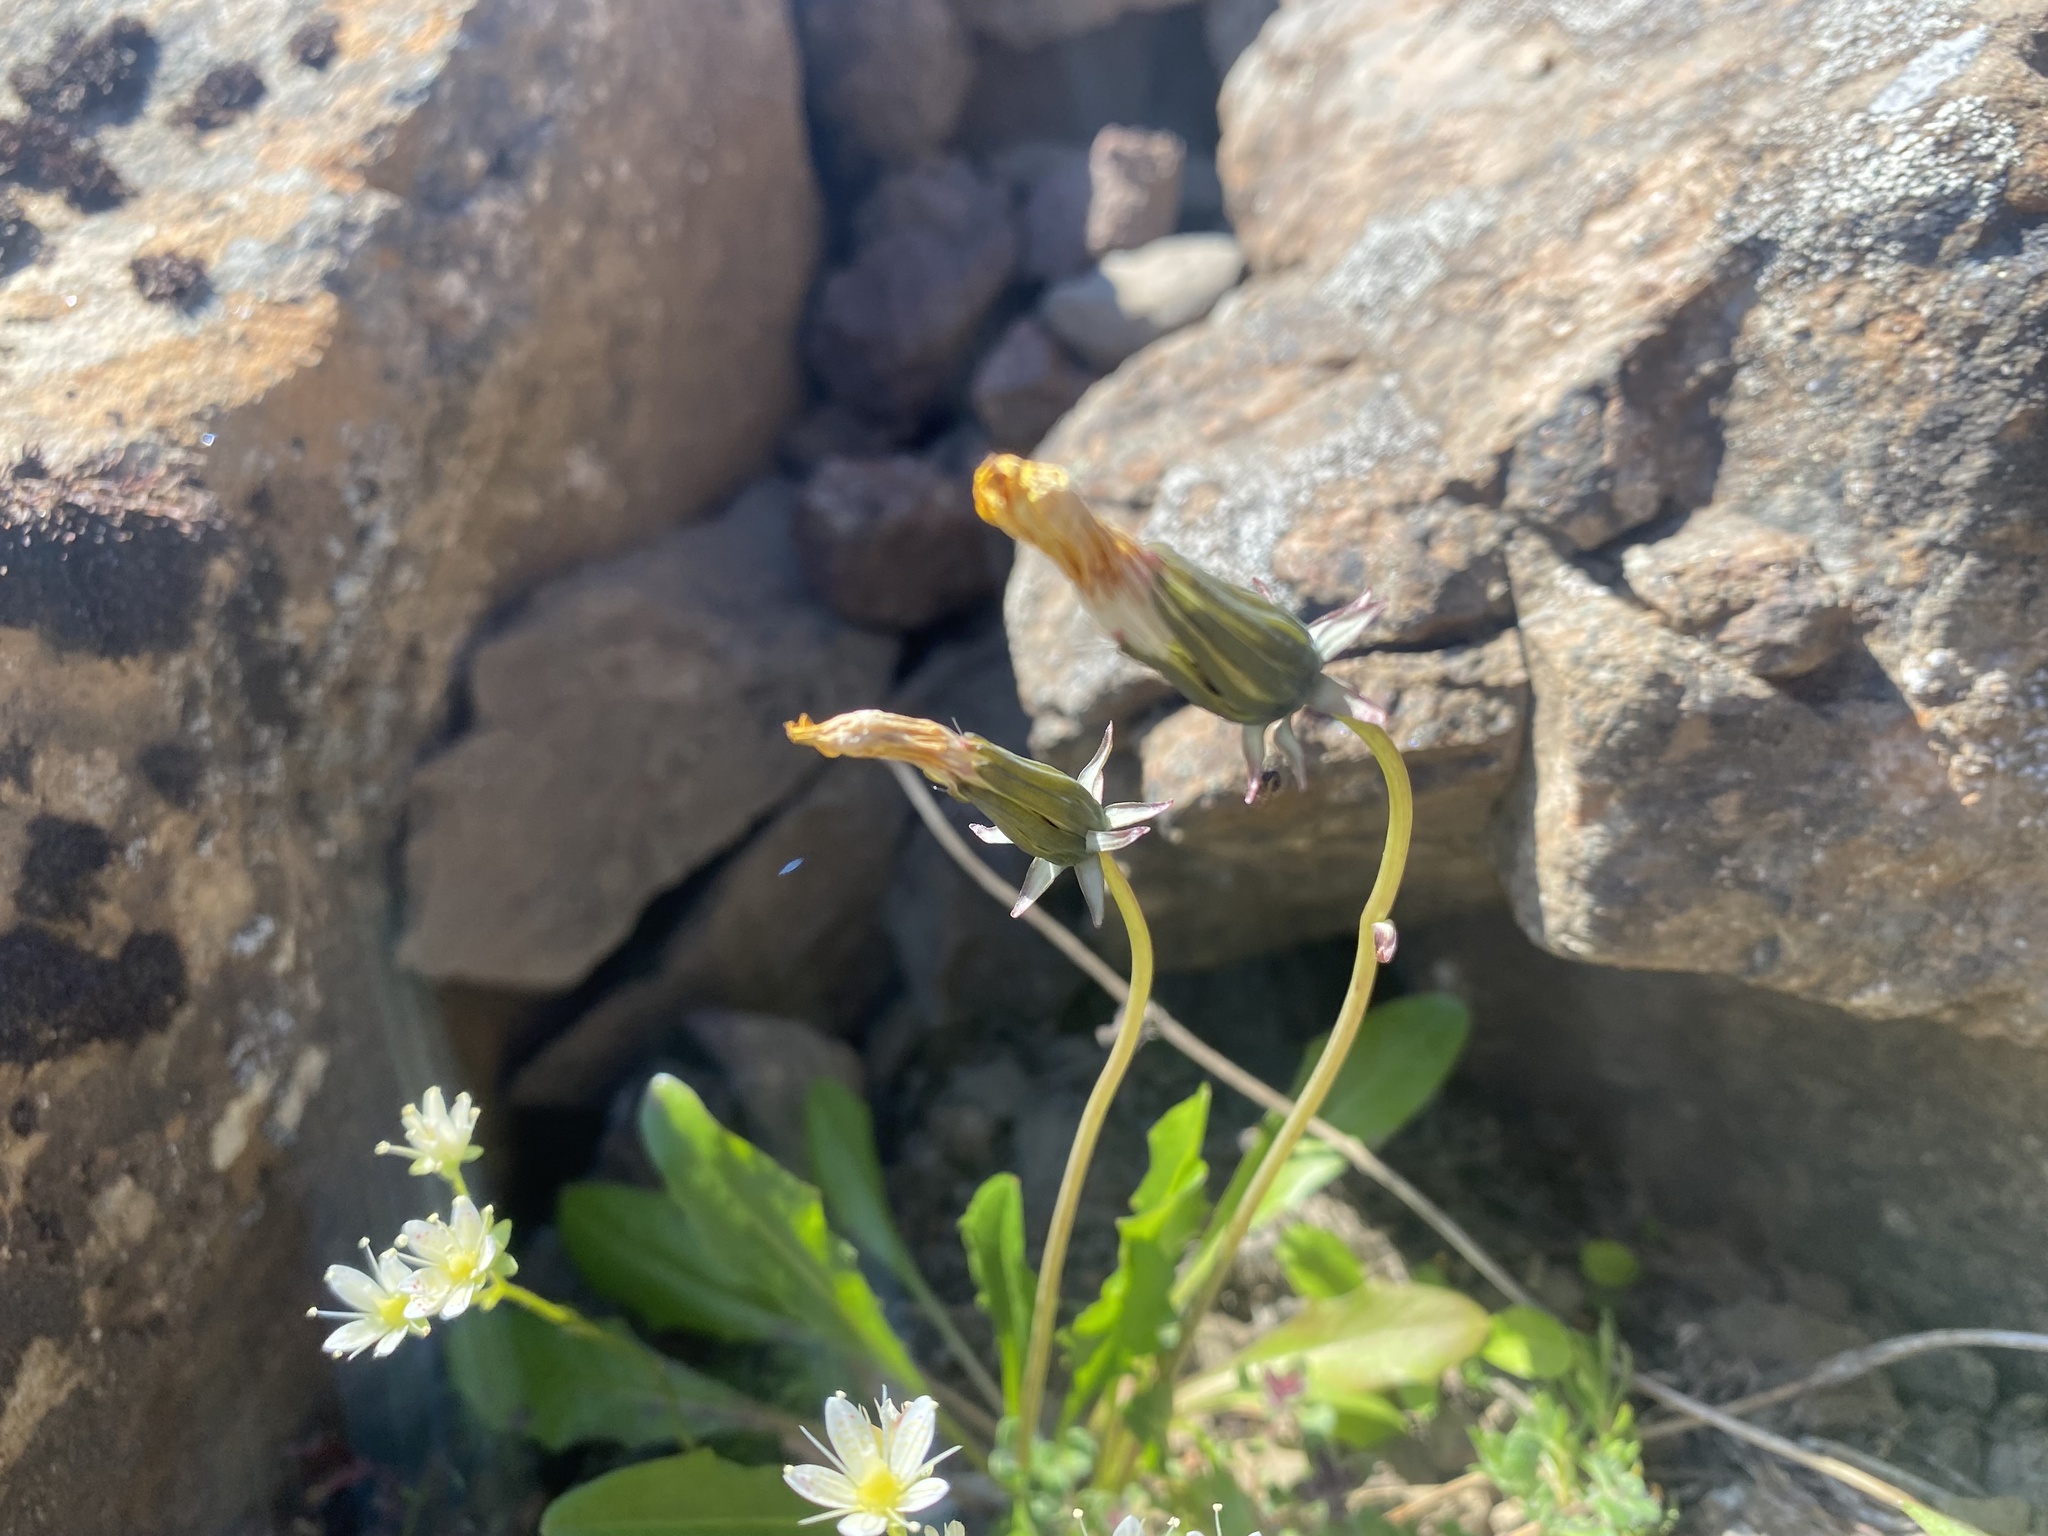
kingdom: Plantae
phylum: Tracheophyta
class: Magnoliopsida
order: Asterales
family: Asteraceae
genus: Taraxacum
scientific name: Taraxacum glabrum
